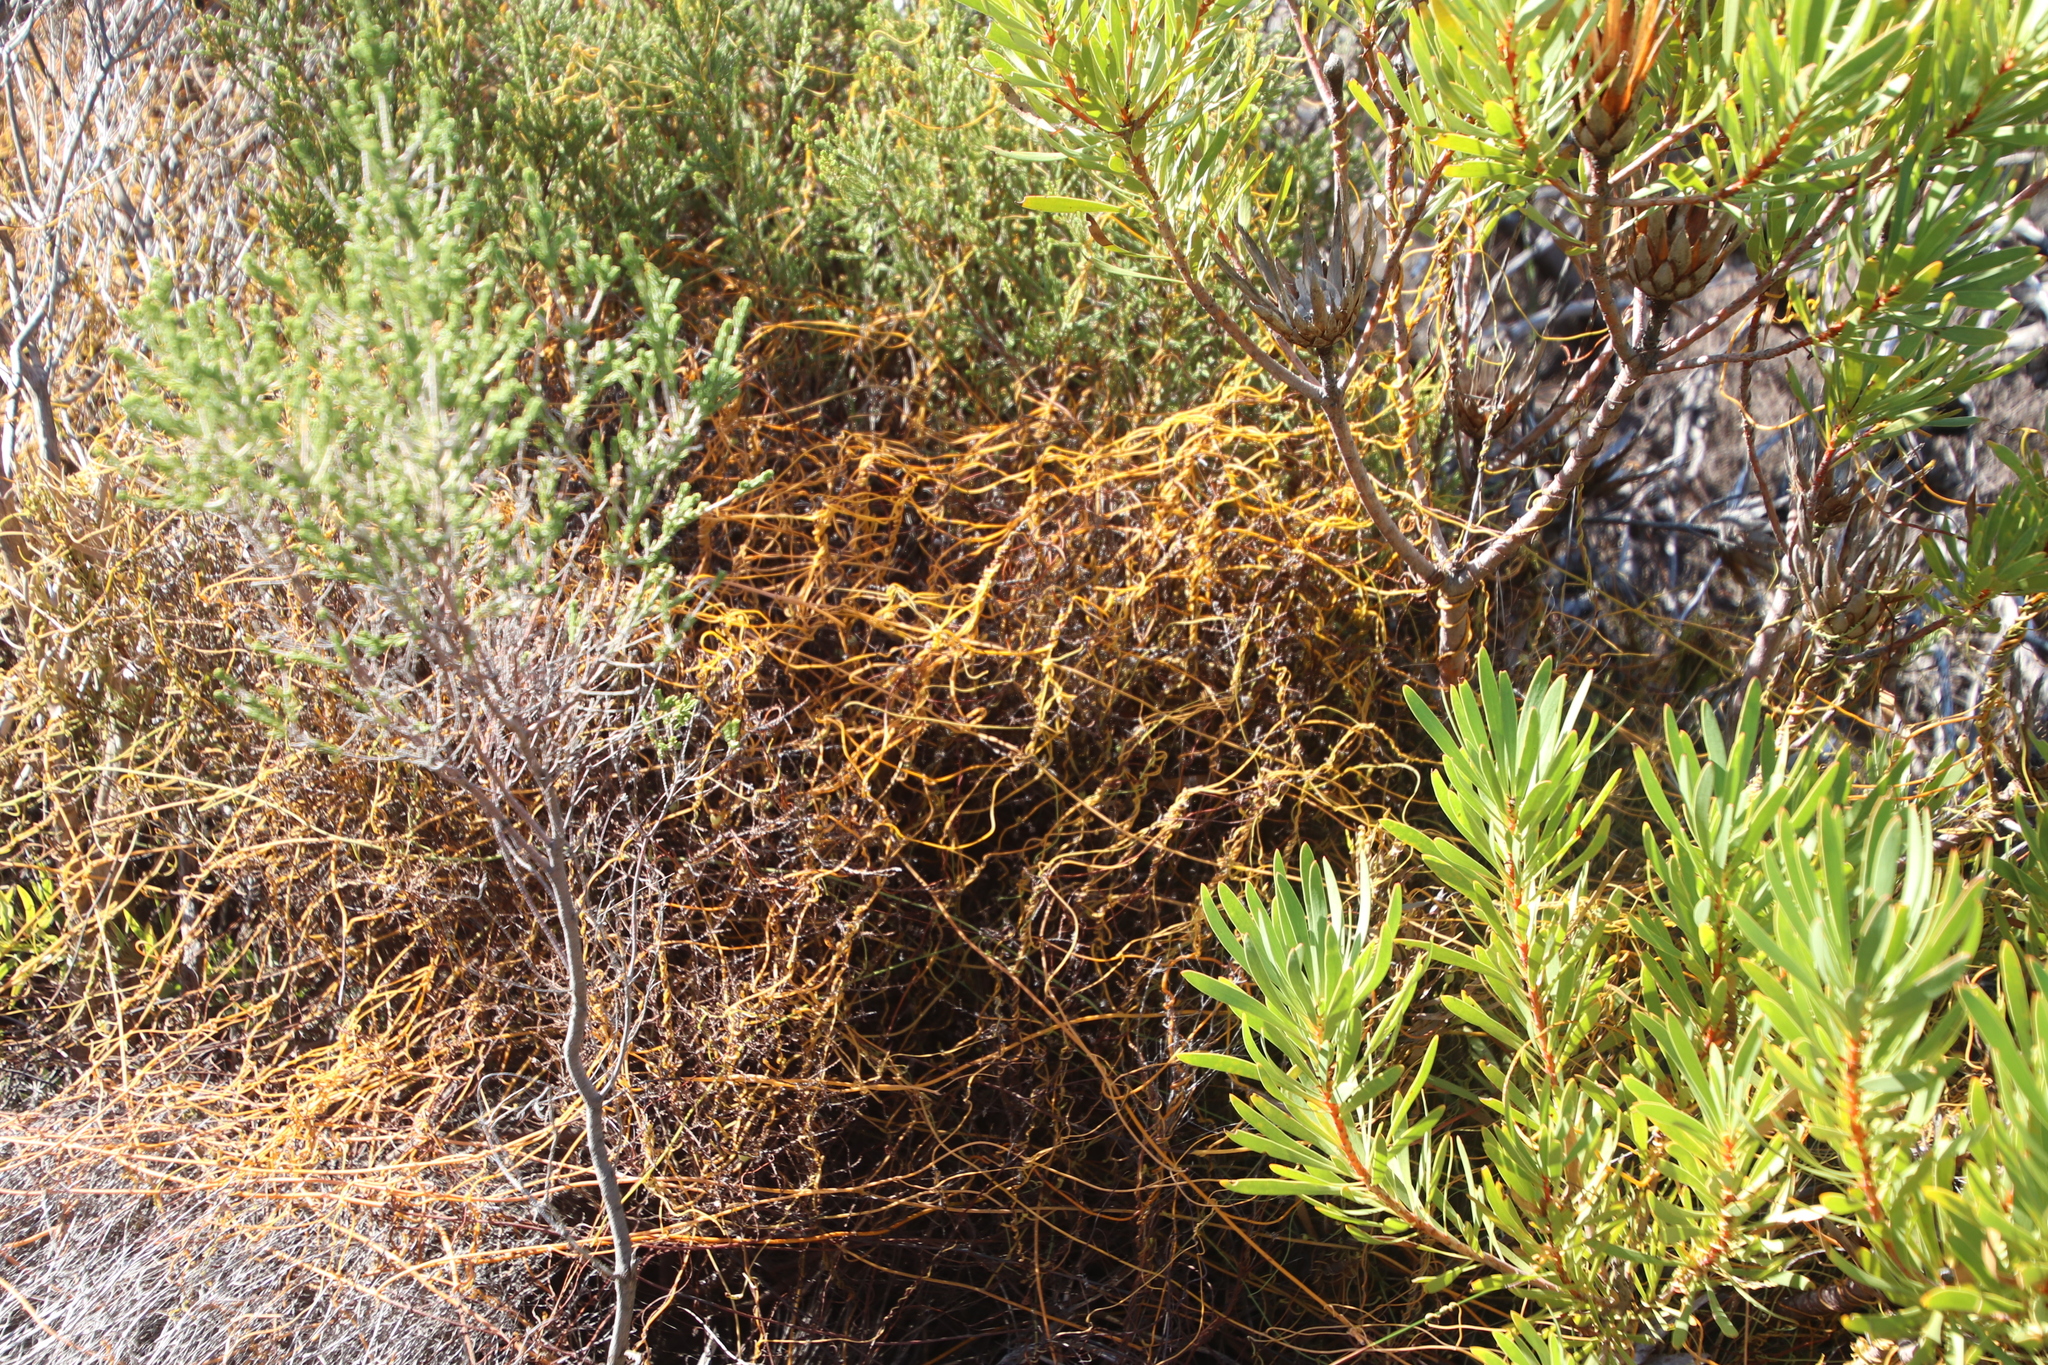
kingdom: Plantae
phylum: Tracheophyta
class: Magnoliopsida
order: Laurales
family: Lauraceae
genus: Cassytha
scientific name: Cassytha ciliolata
